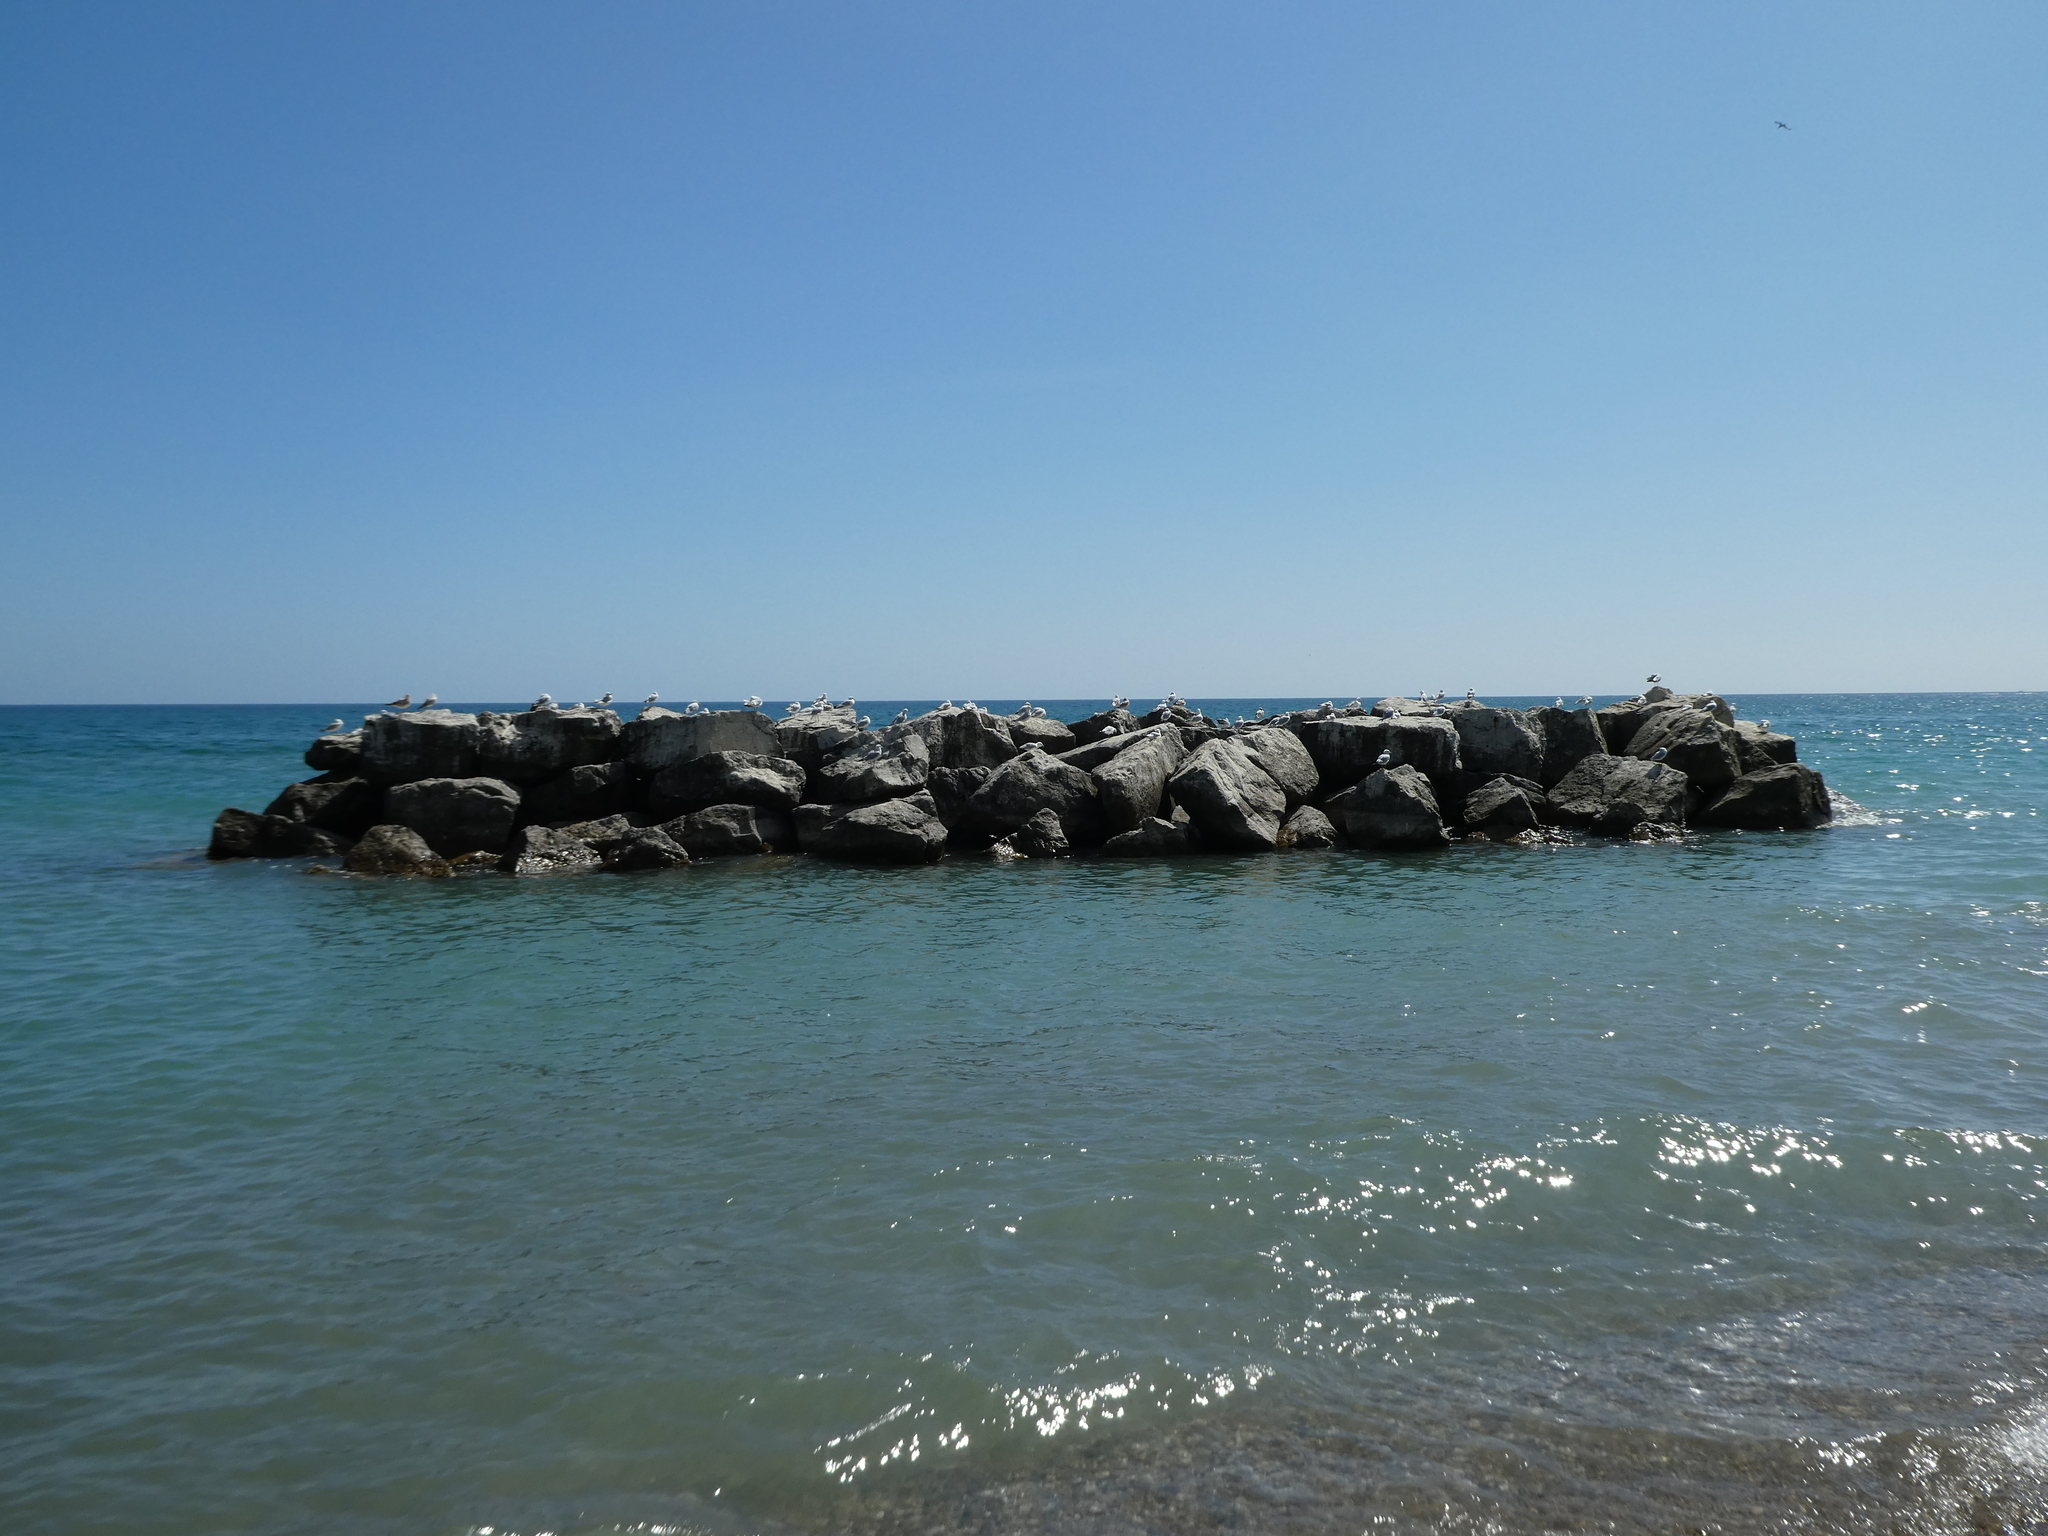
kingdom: Animalia
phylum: Chordata
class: Aves
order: Charadriiformes
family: Laridae
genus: Larus
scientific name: Larus delawarensis
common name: Ring-billed gull
